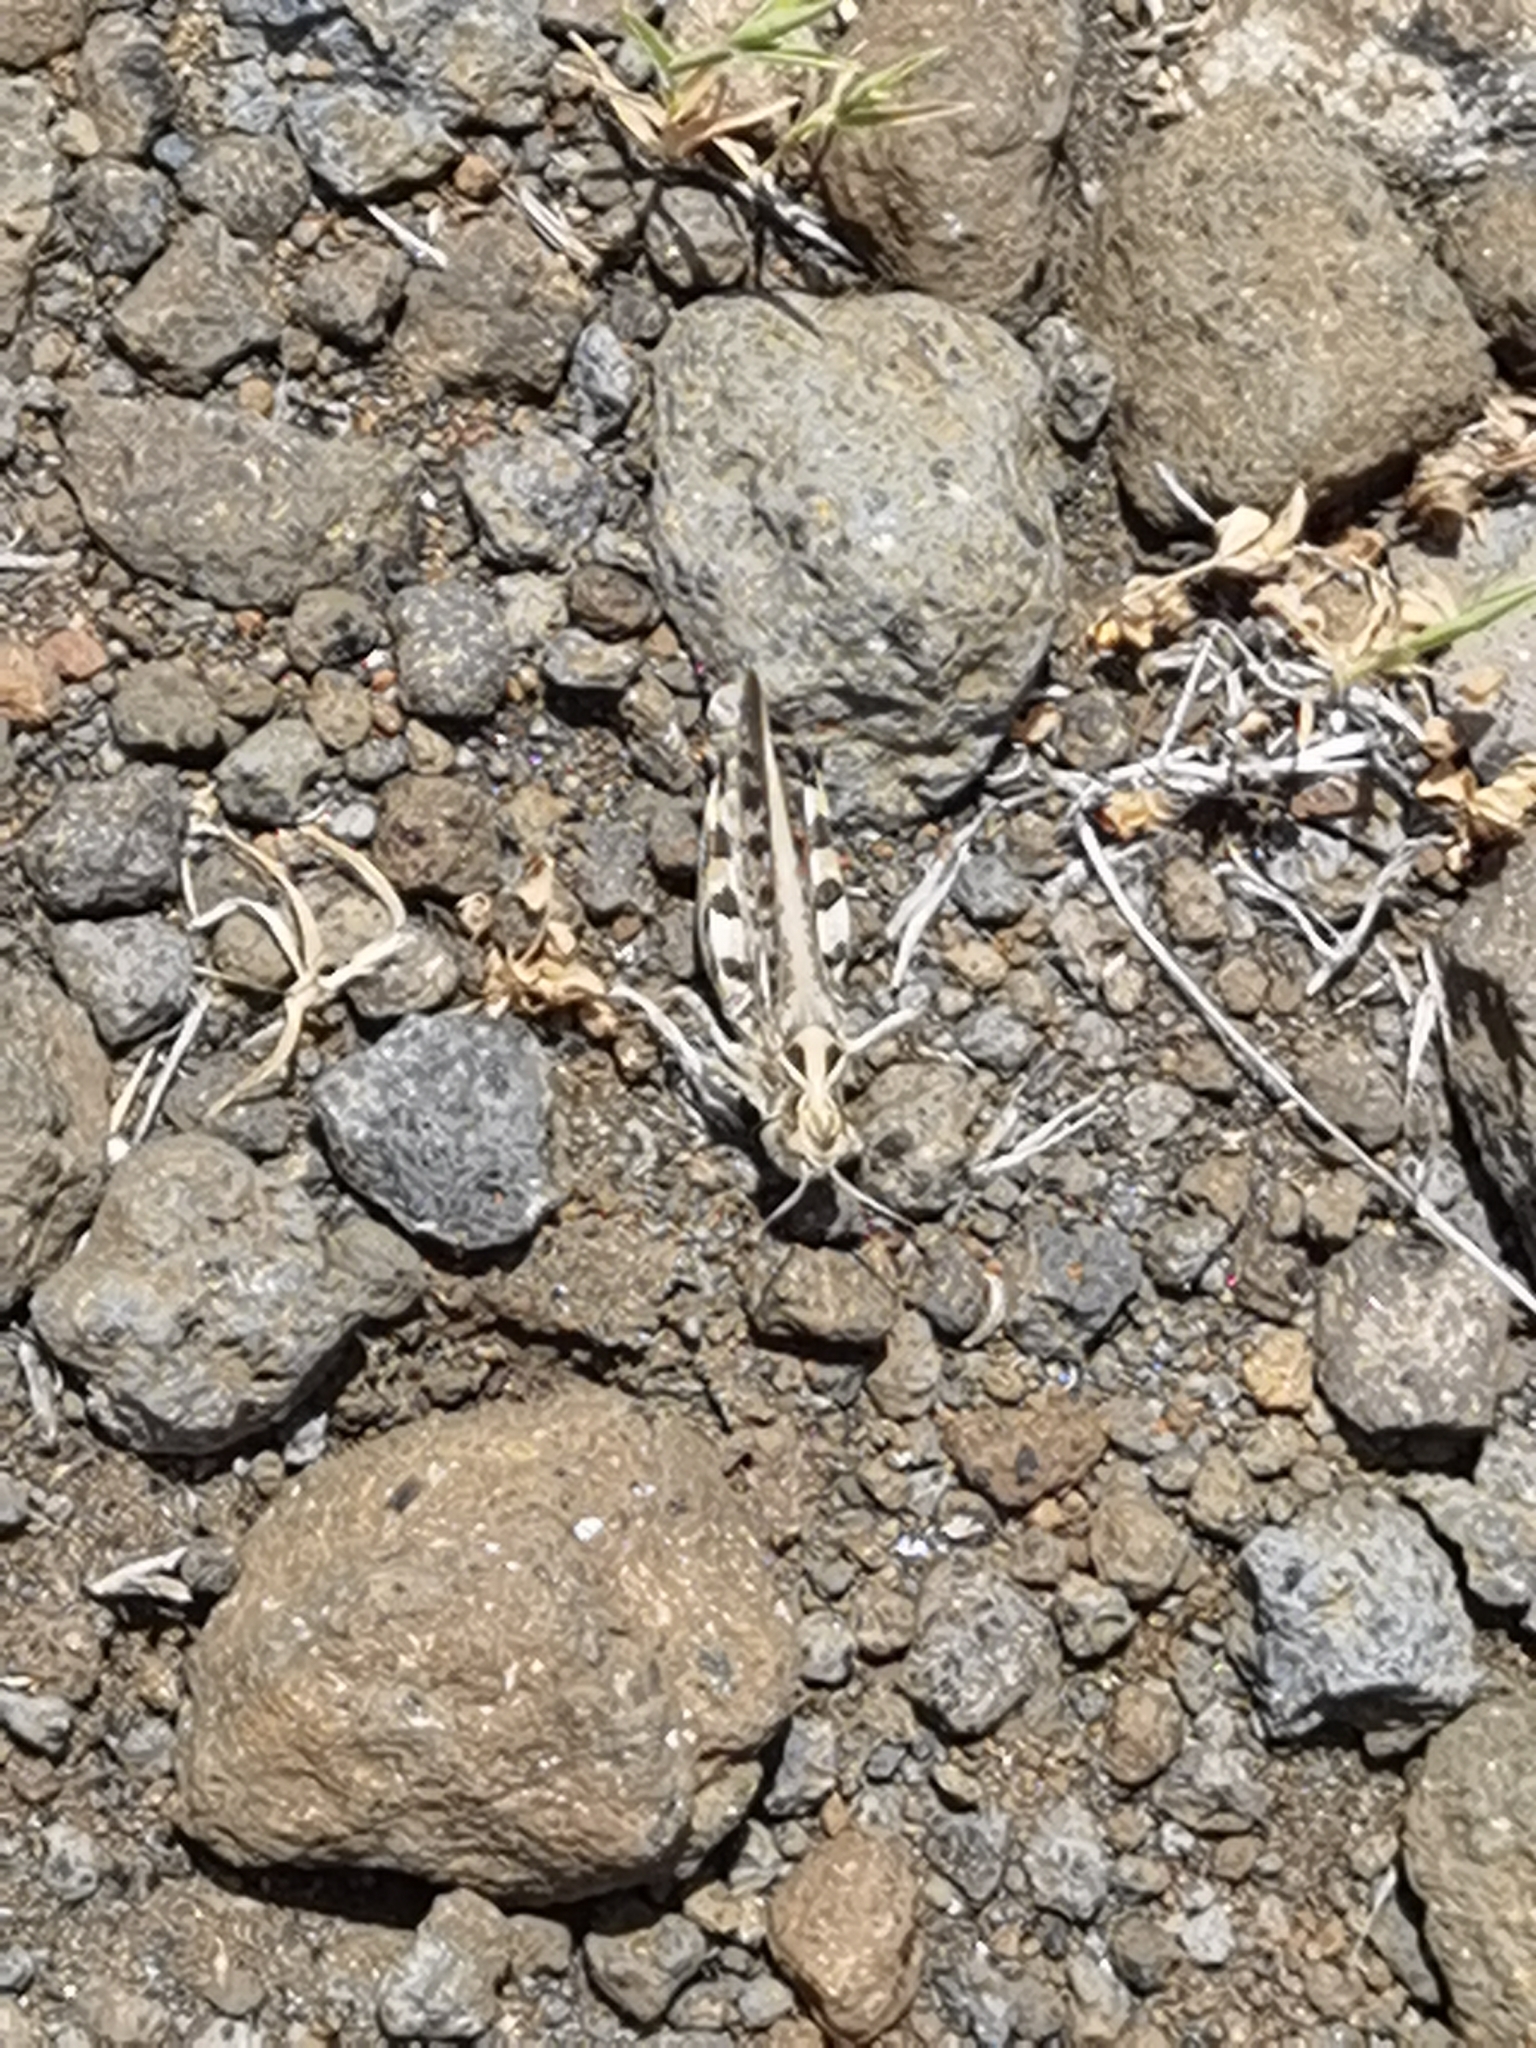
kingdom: Animalia
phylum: Arthropoda
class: Insecta
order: Orthoptera
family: Acrididae
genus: Dociostaurus
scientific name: Dociostaurus maroccanus
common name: Moroccan locust
